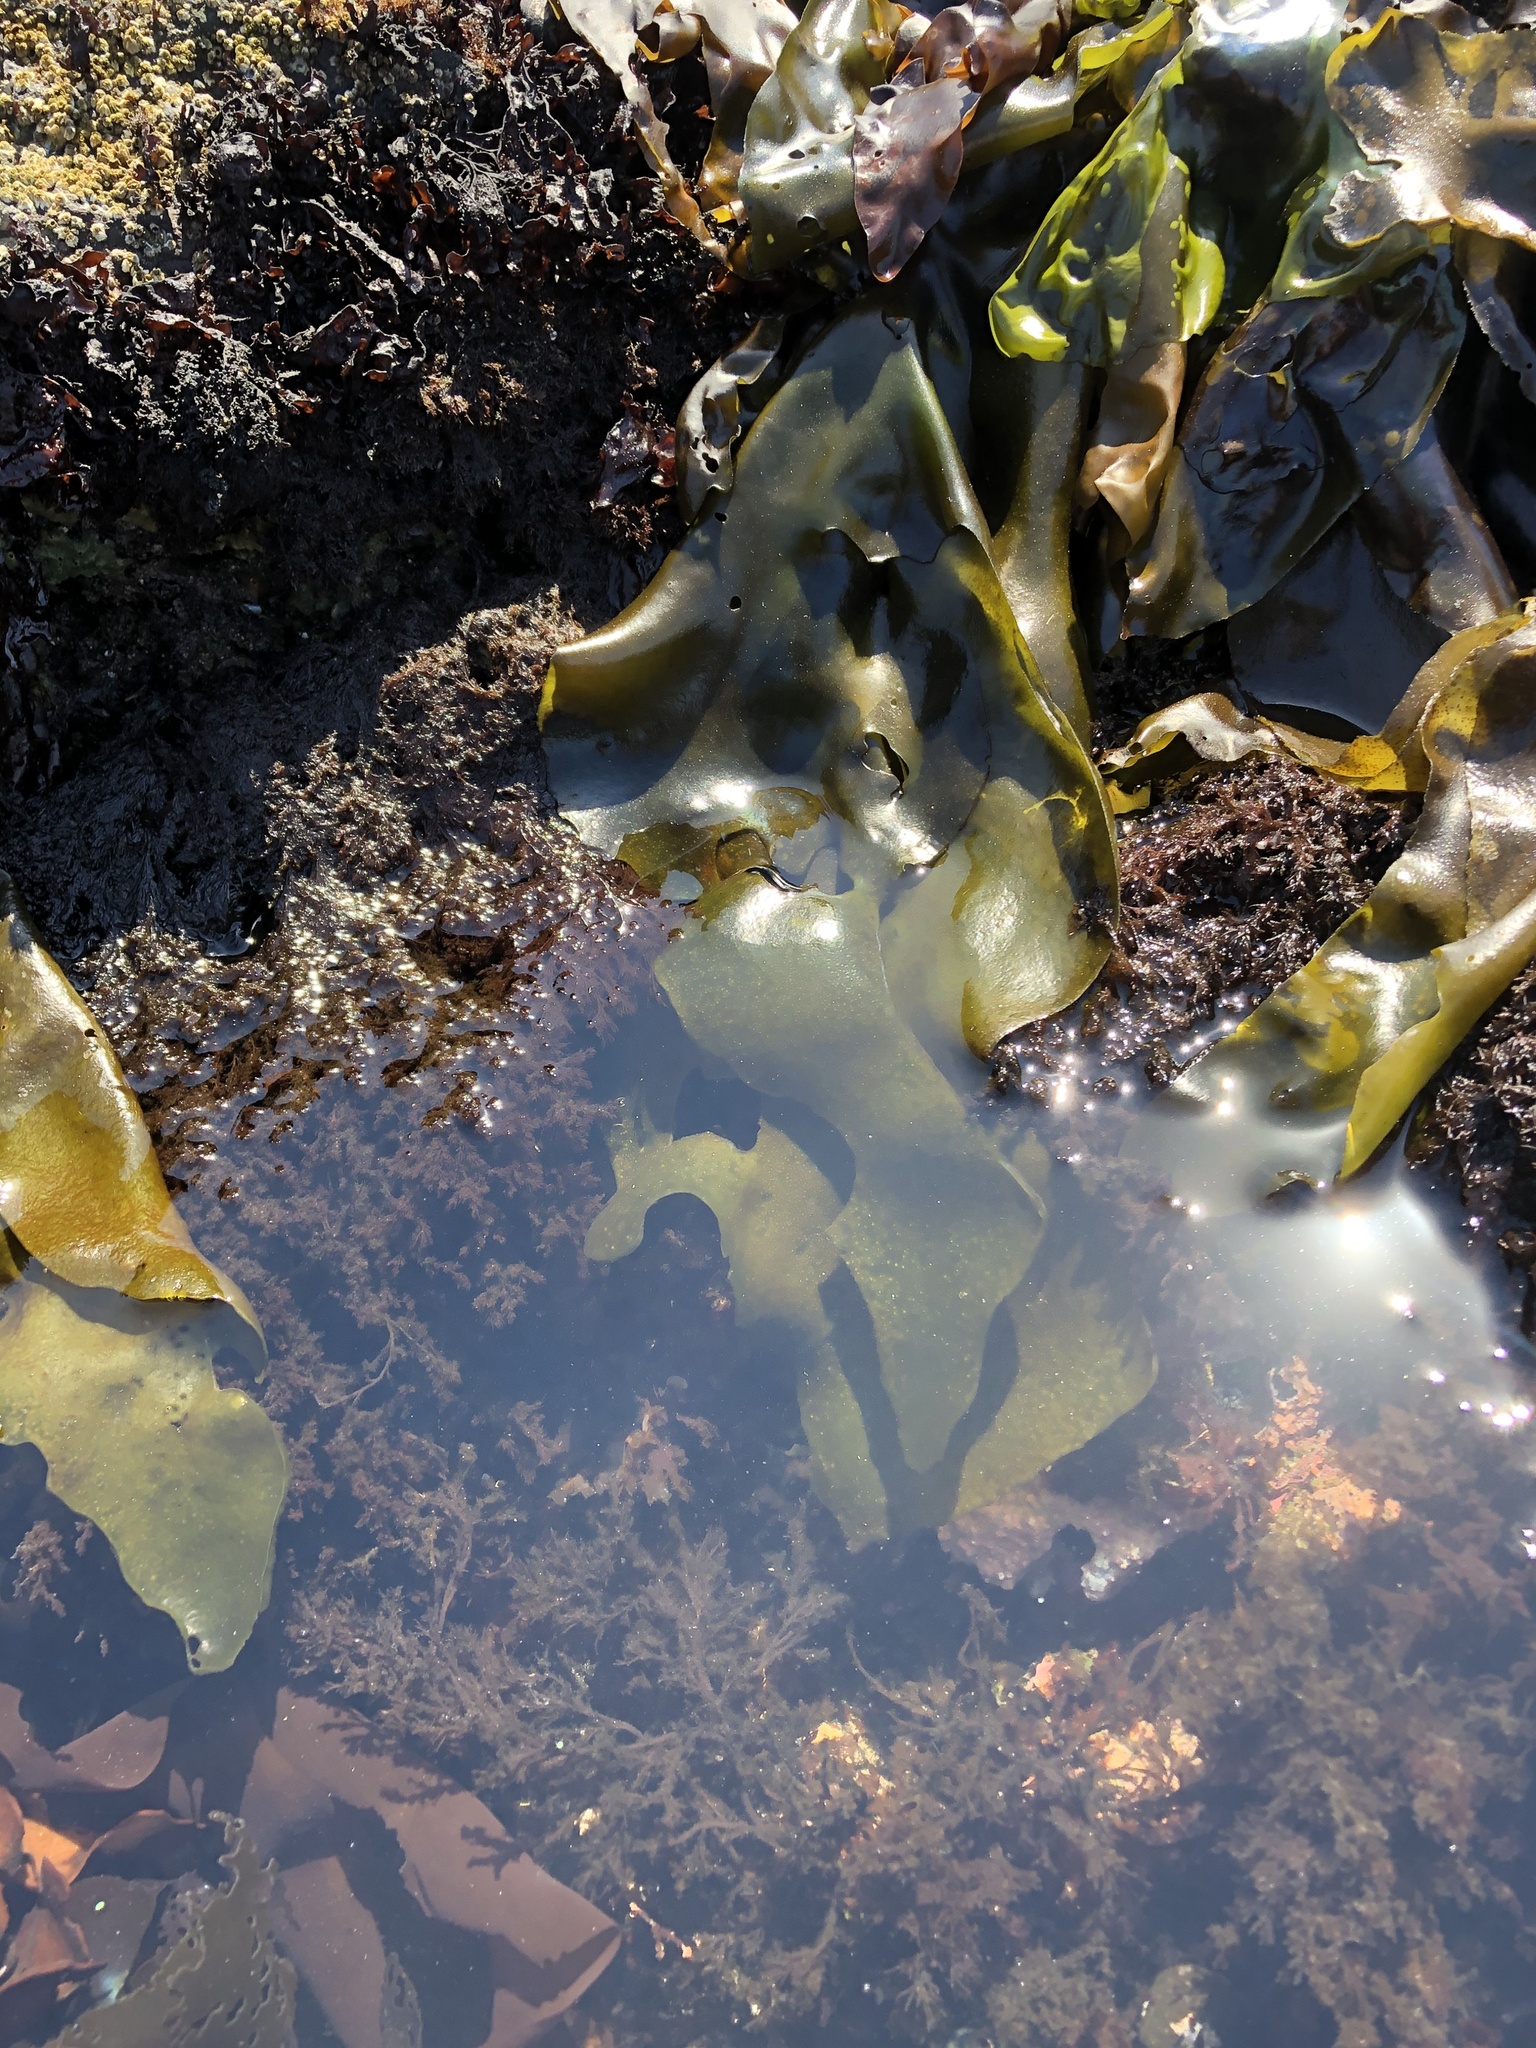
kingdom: Plantae
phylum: Rhodophyta
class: Florideophyceae
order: Gigartinales
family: Gigartinaceae
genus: Mazzaella
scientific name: Mazzaella flaccida
